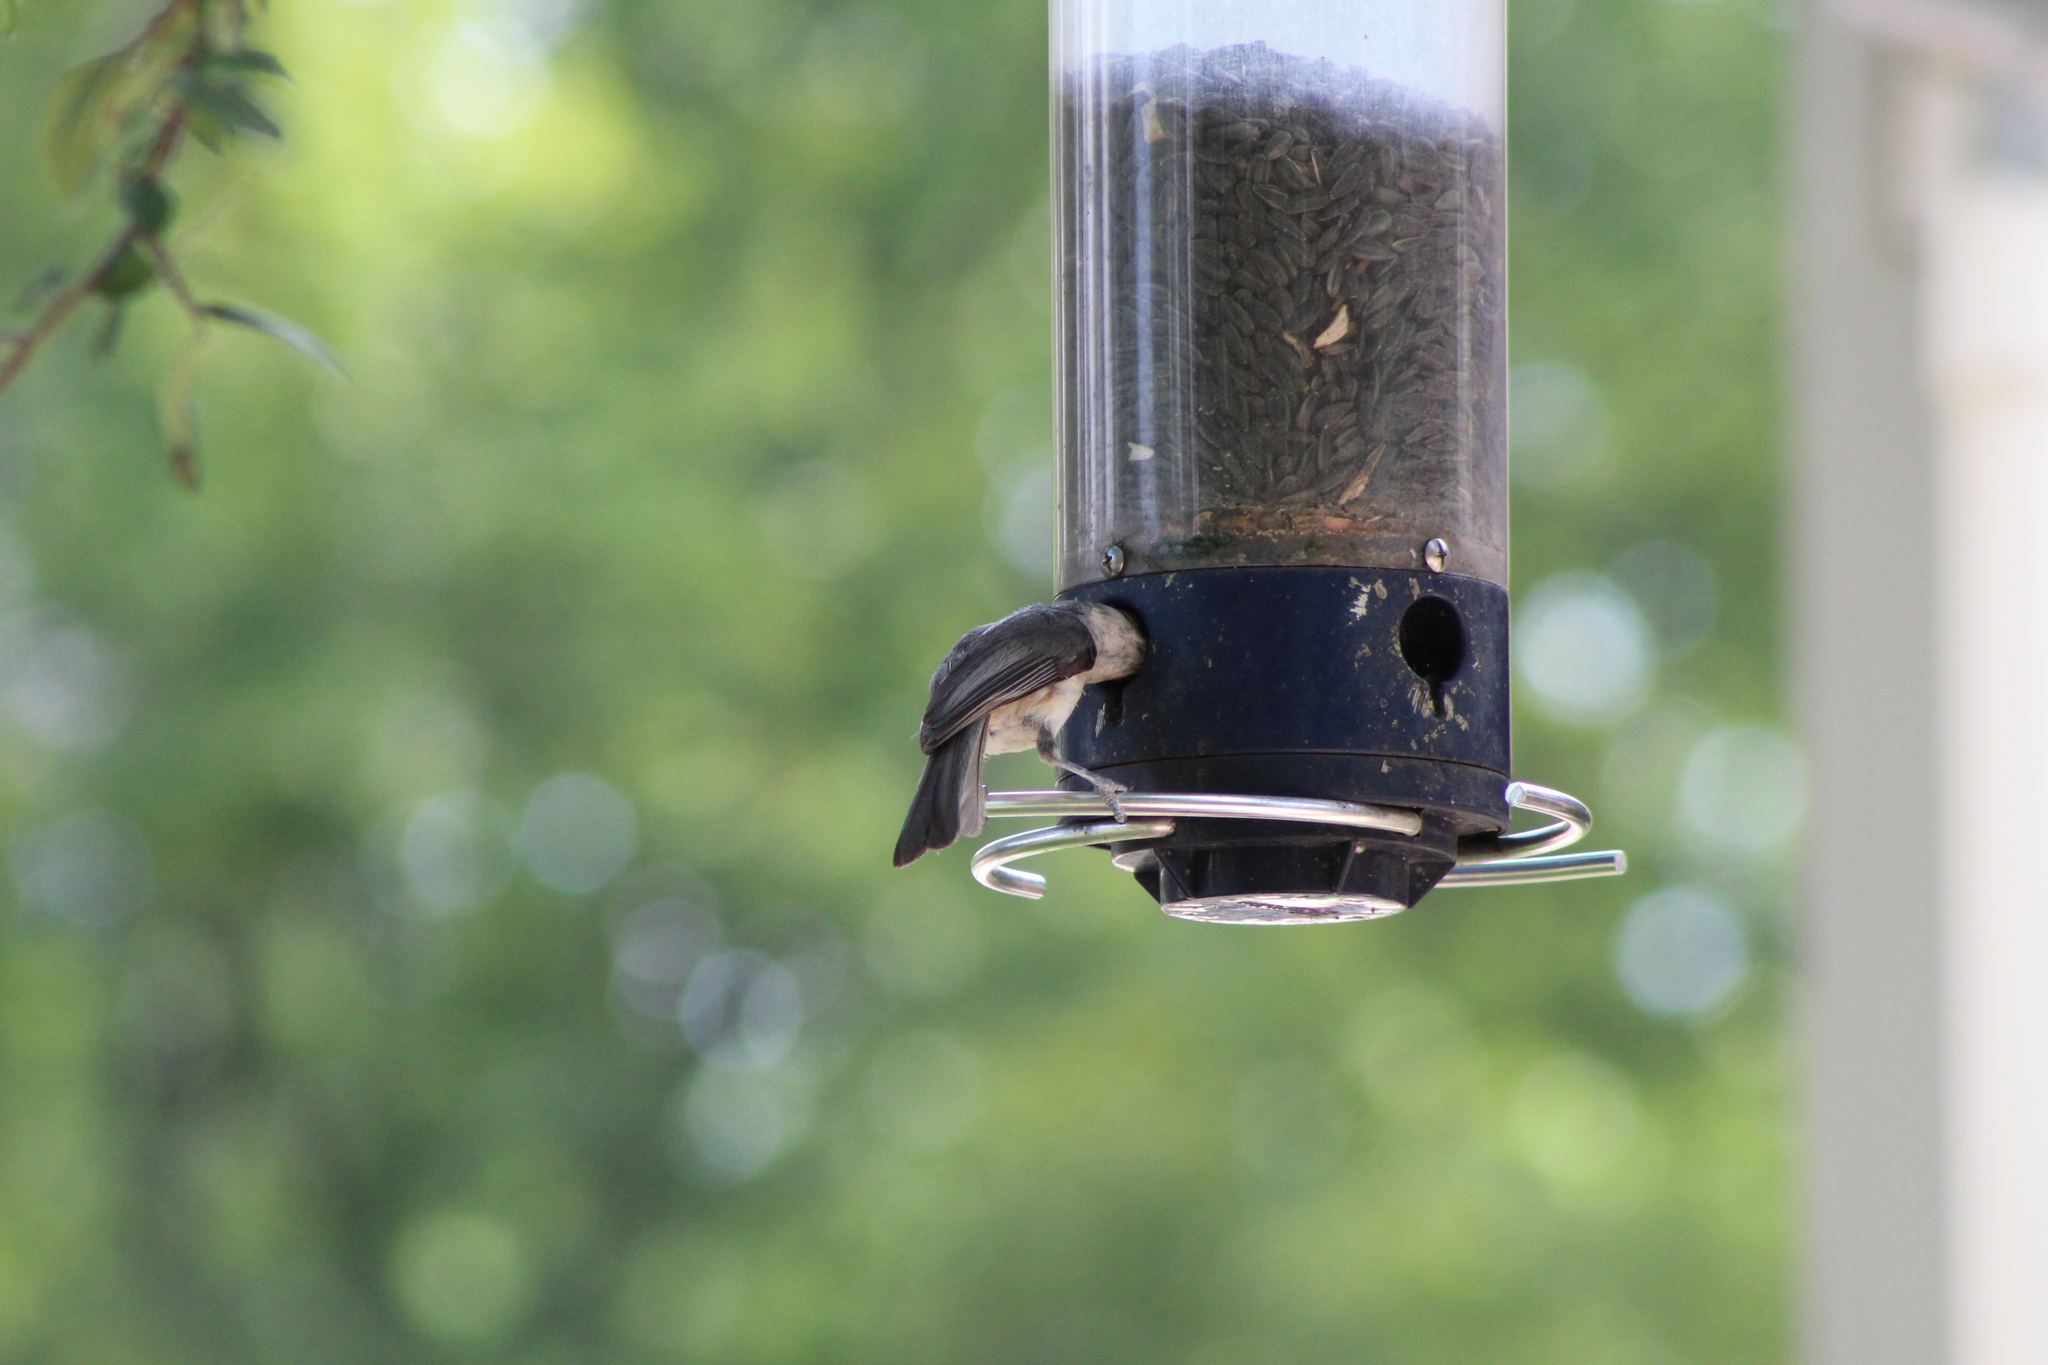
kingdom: Animalia
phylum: Chordata
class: Aves
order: Passeriformes
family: Paridae
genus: Baeolophus
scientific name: Baeolophus bicolor
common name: Tufted titmouse
